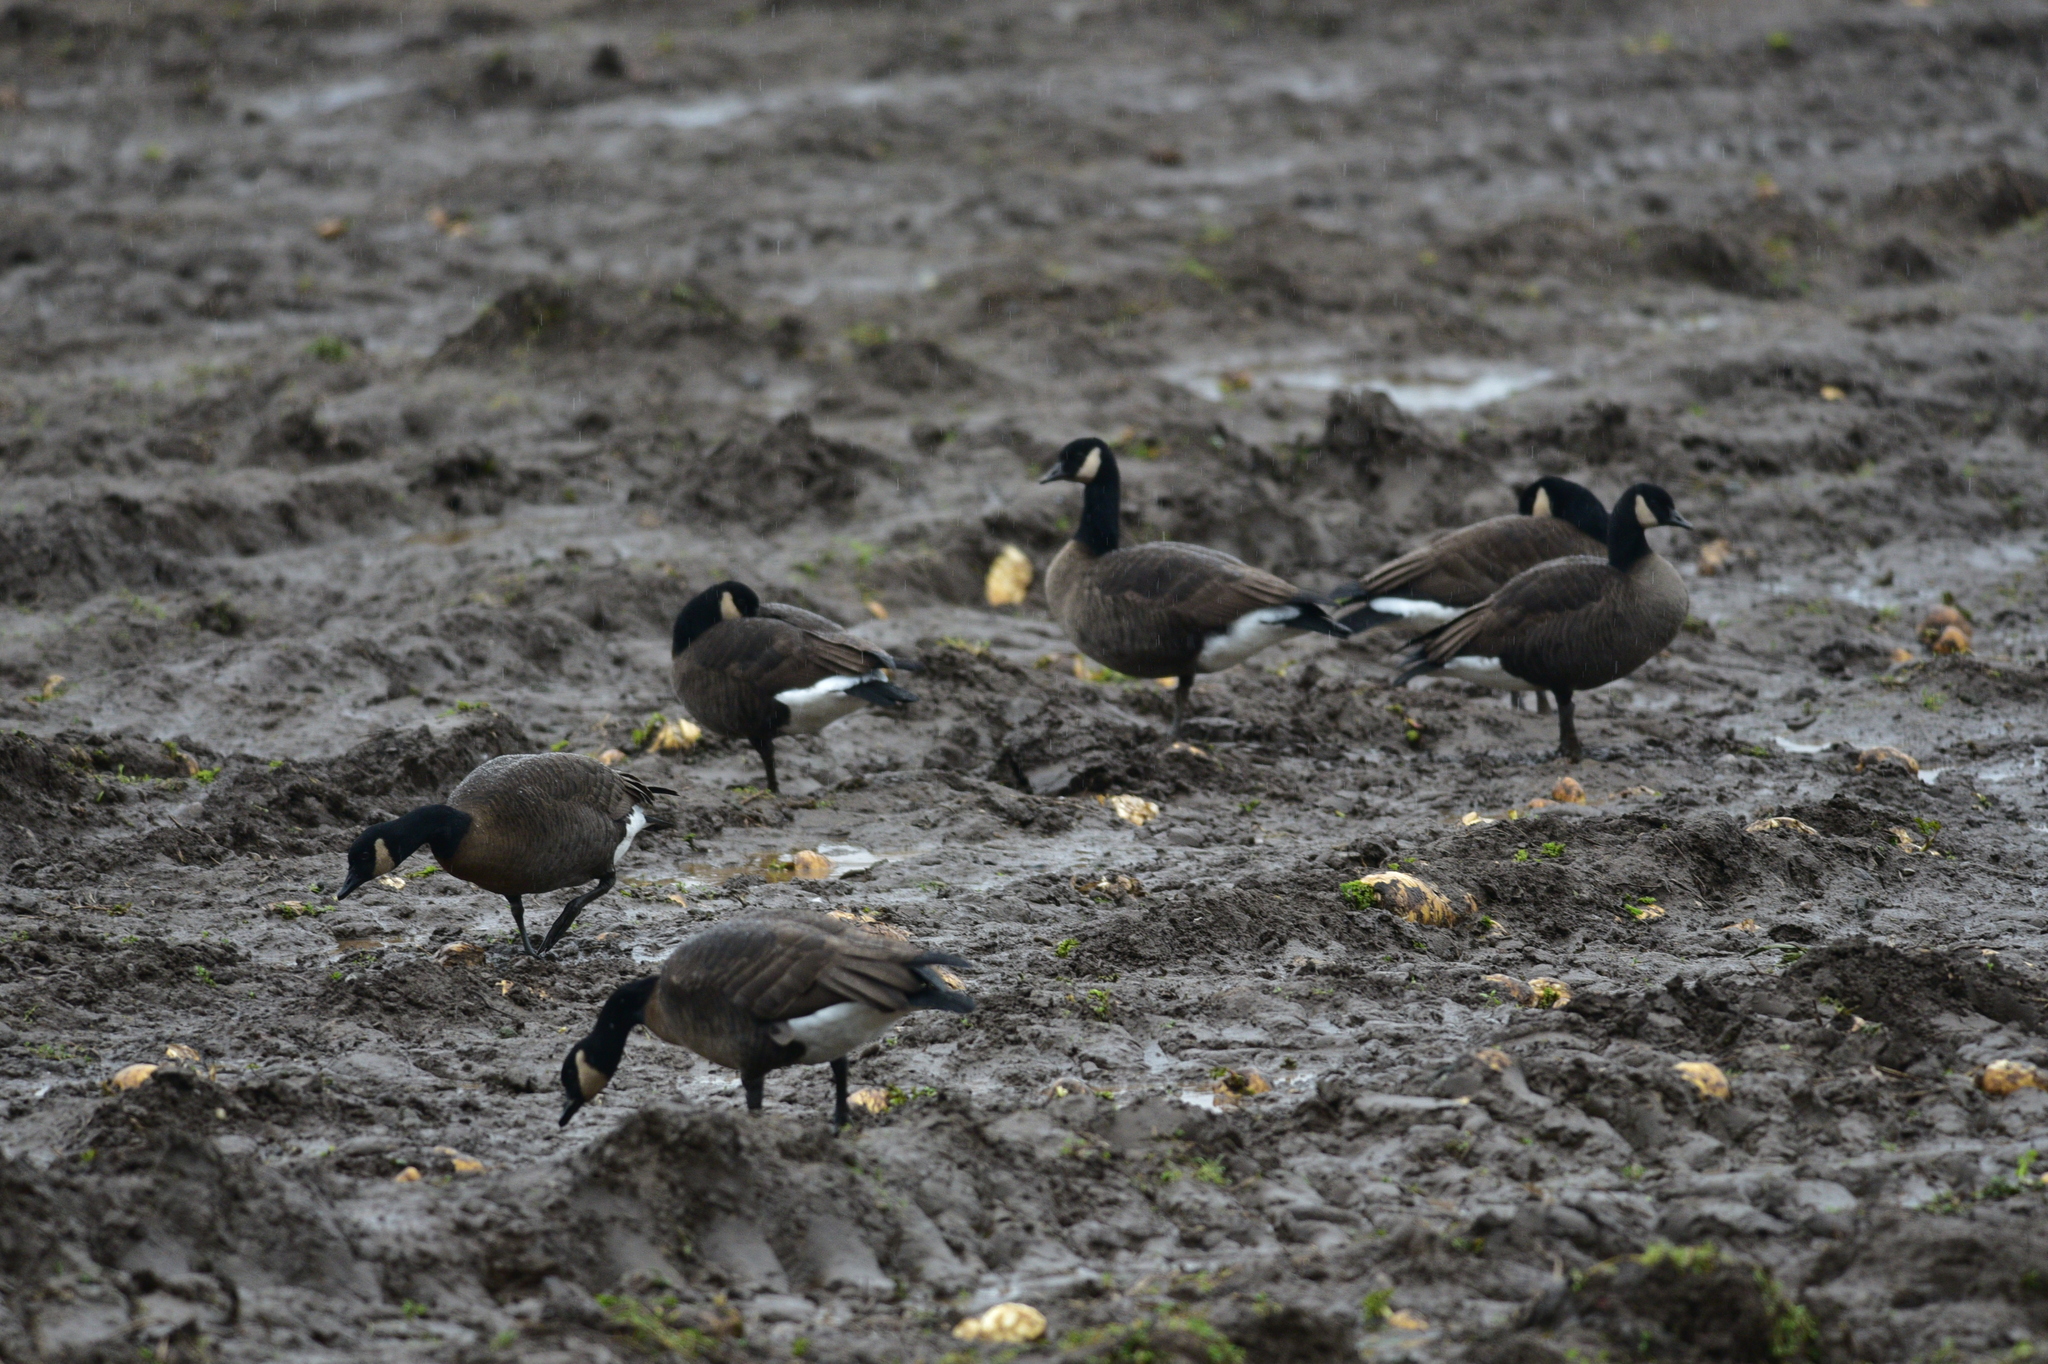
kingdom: Animalia
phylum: Chordata
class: Aves
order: Anseriformes
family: Anatidae
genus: Branta
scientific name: Branta hutchinsii
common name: Cackling goose
